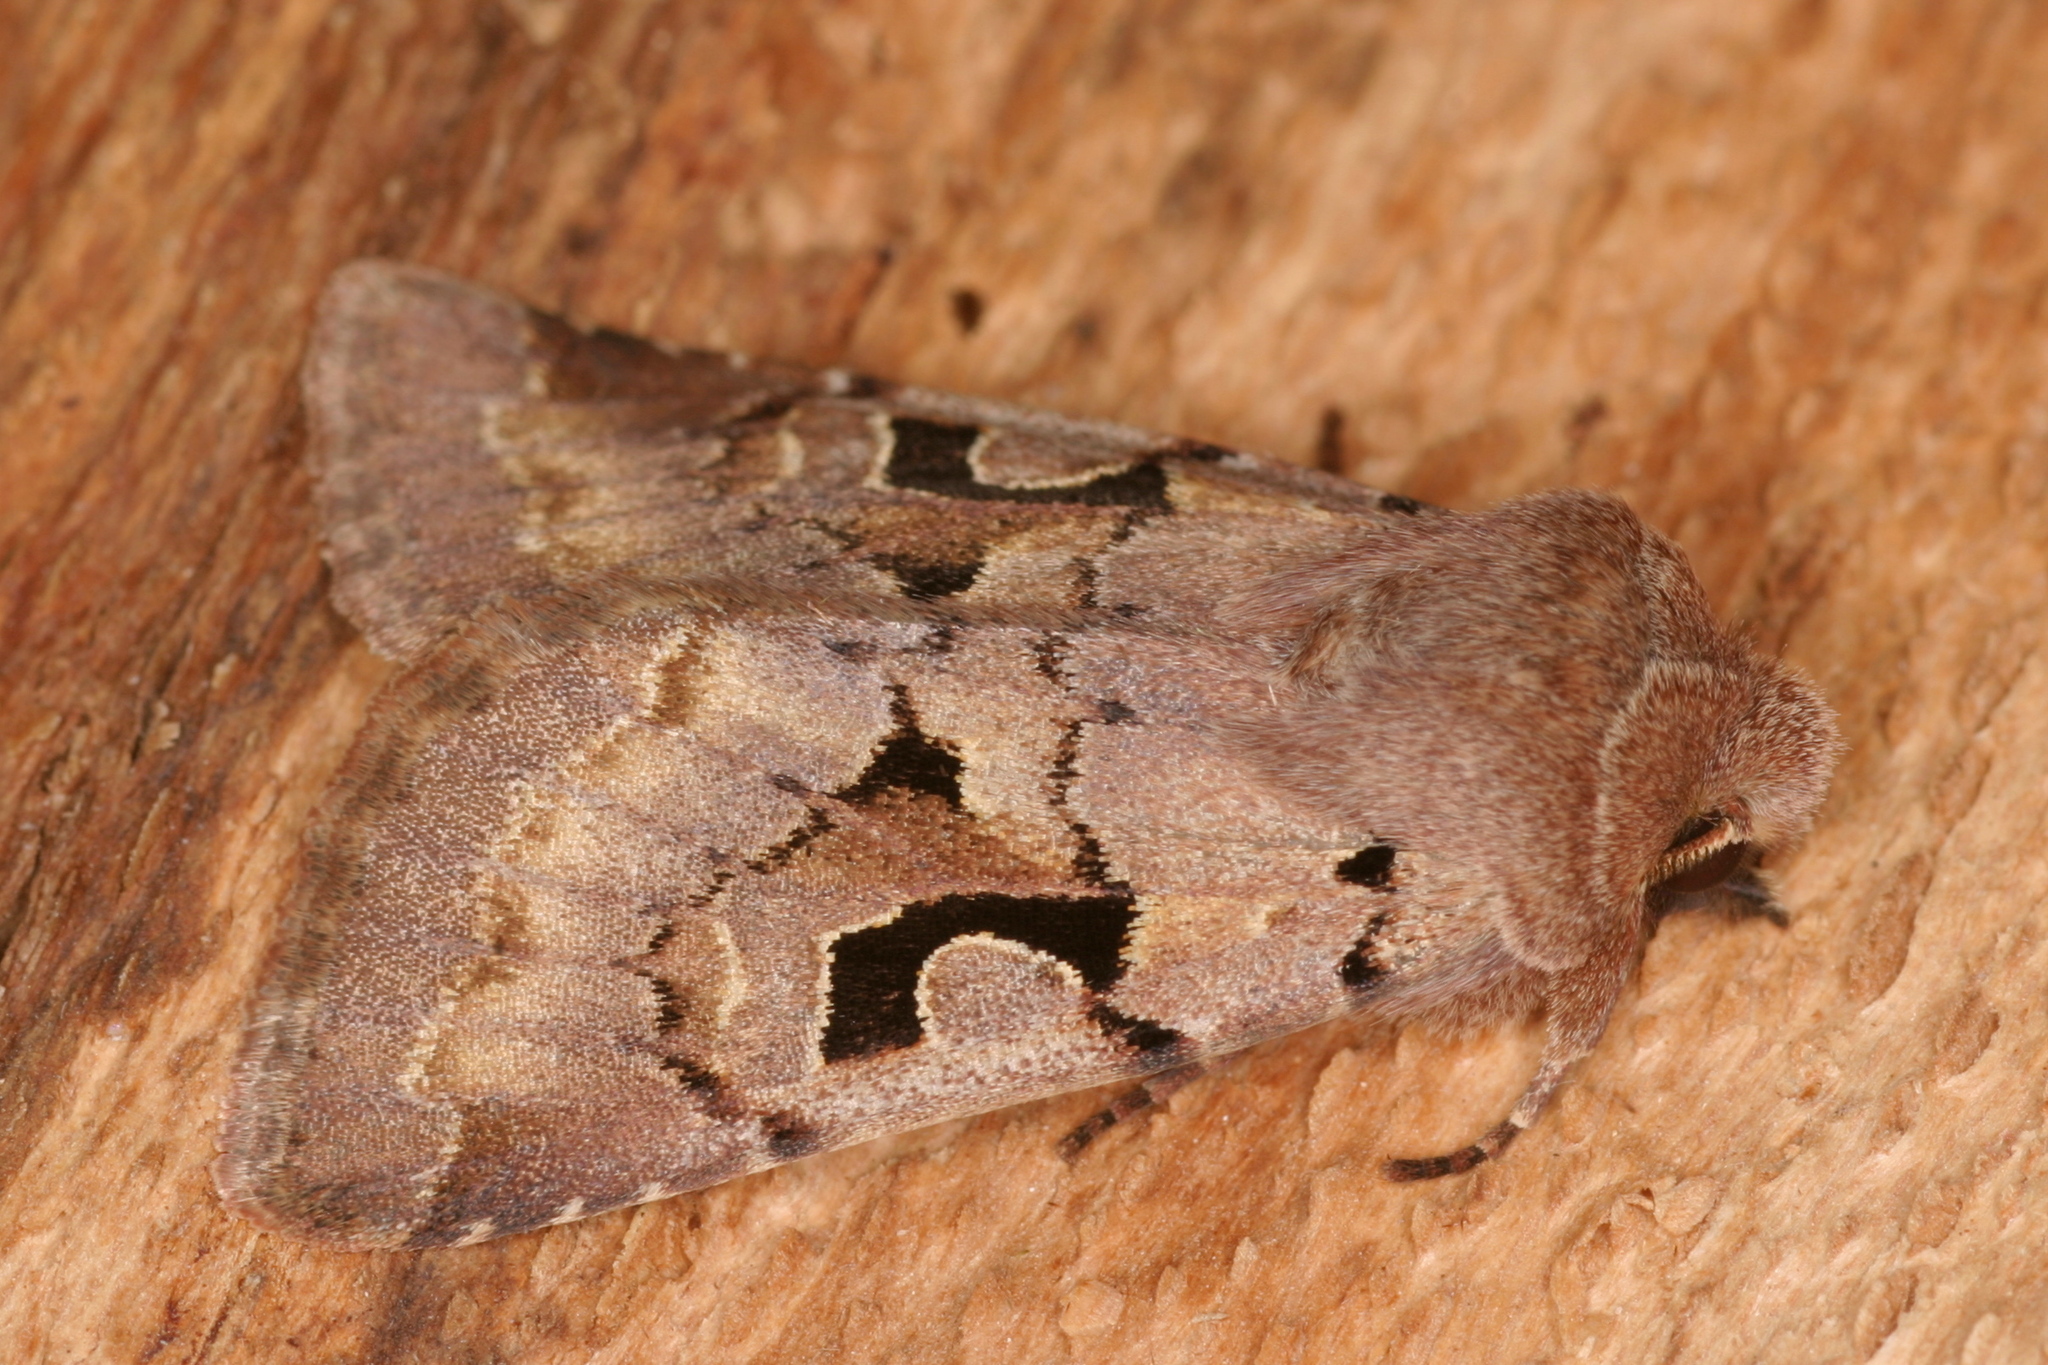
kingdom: Animalia
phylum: Arthropoda
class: Insecta
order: Lepidoptera
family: Noctuidae
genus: Orthosia
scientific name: Orthosia gothica
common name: Hebrew character
